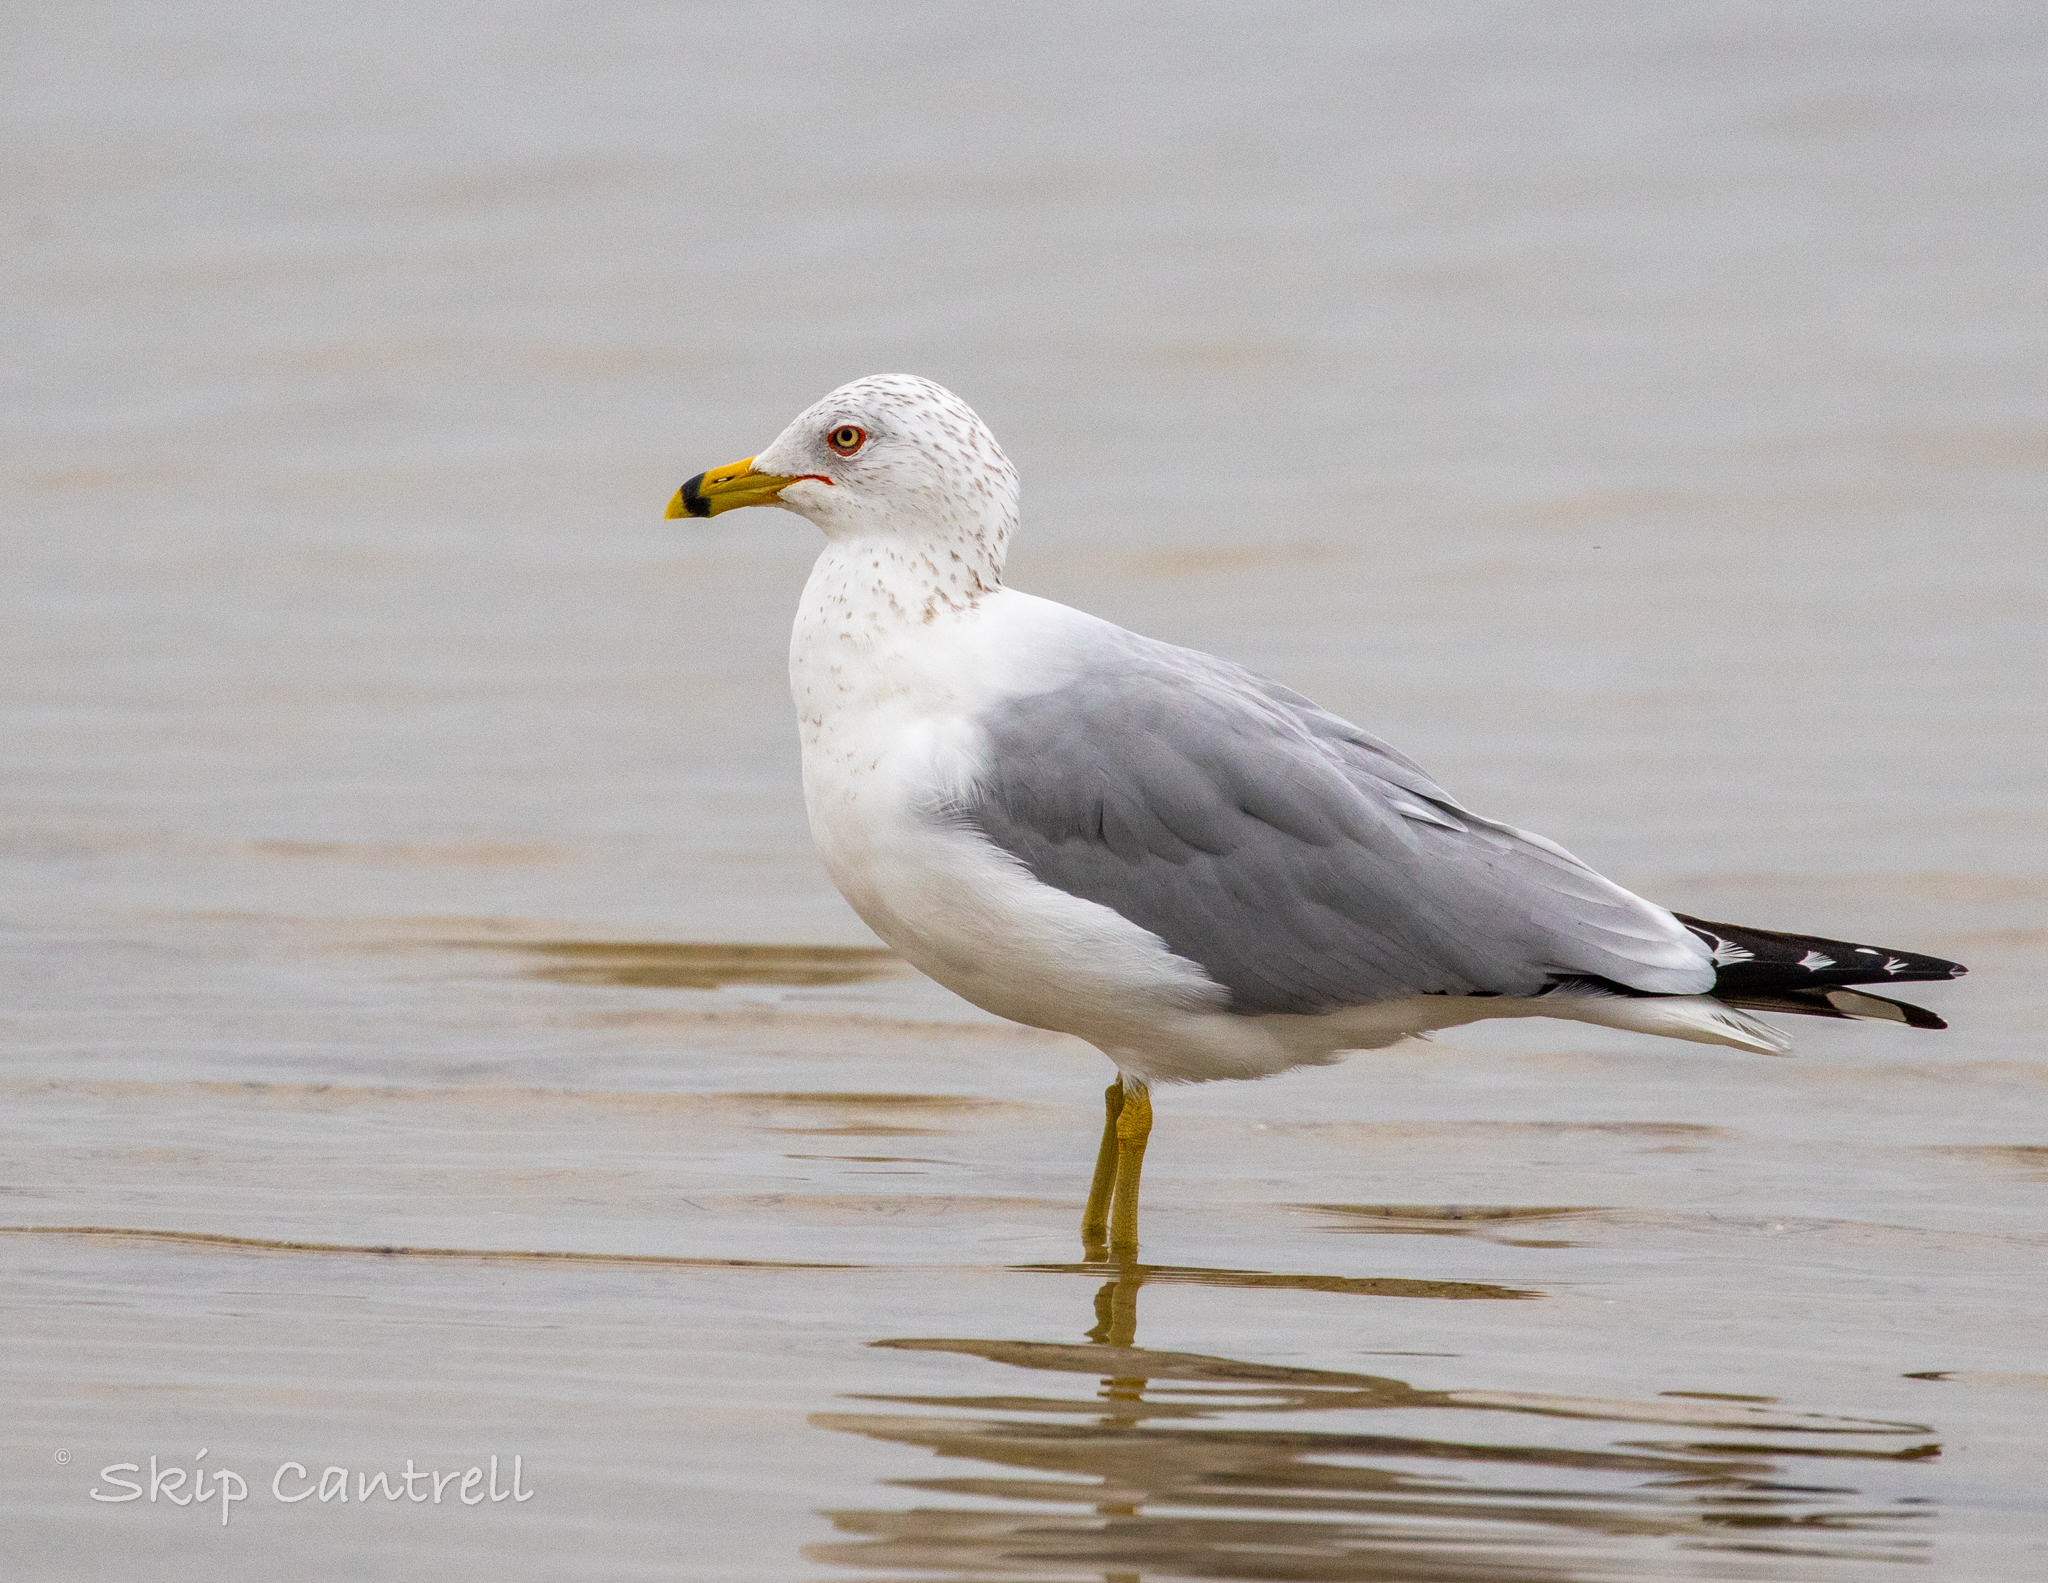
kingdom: Animalia
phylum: Chordata
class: Aves
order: Charadriiformes
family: Laridae
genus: Larus
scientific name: Larus delawarensis
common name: Ring-billed gull
